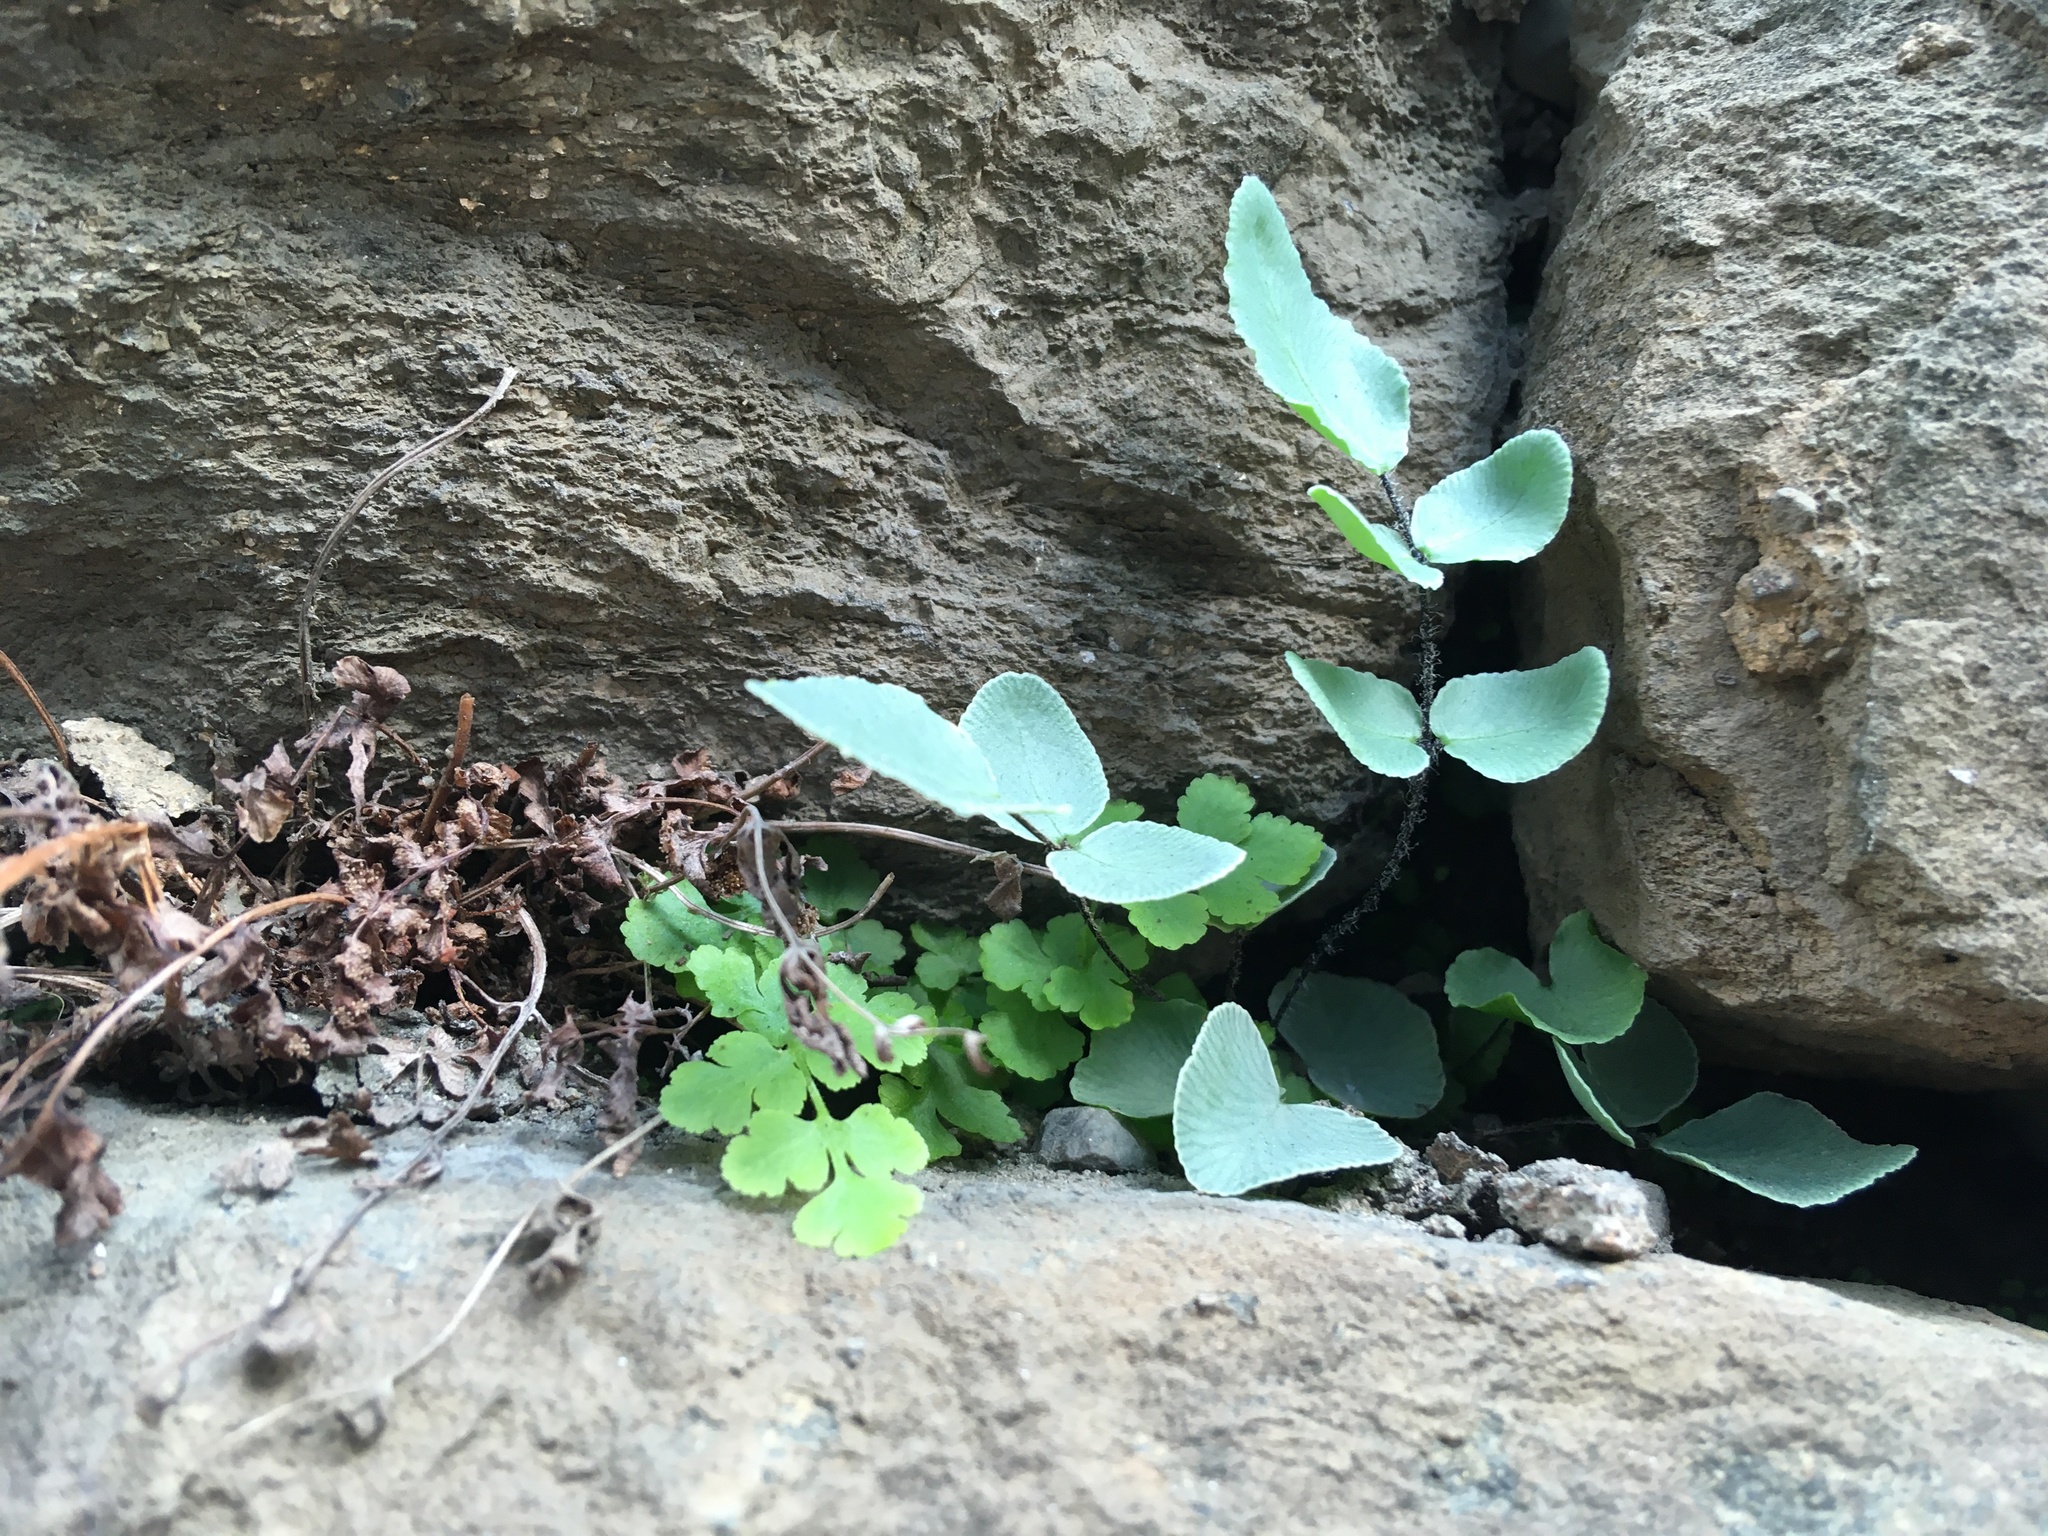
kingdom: Plantae
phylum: Tracheophyta
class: Polypodiopsida
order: Polypodiales
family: Pteridaceae
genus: Pellaea
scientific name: Pellaea atropurpurea
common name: Hairy cliffbrake
